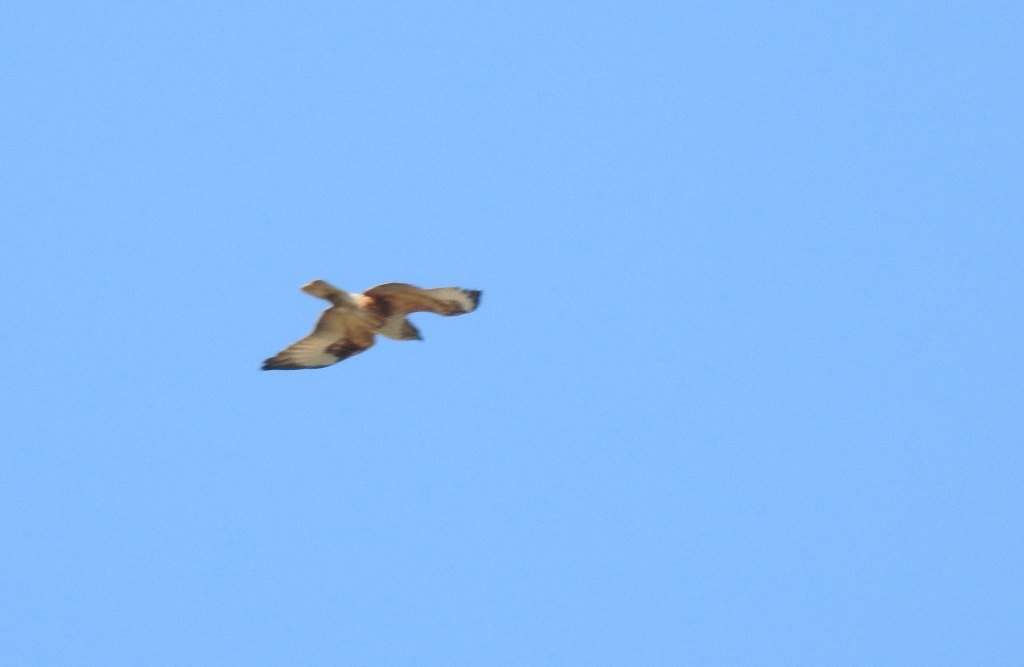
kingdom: Animalia
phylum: Chordata
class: Aves
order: Accipitriformes
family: Accipitridae
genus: Buteo
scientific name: Buteo rufinus
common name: Long-legged buzzard
